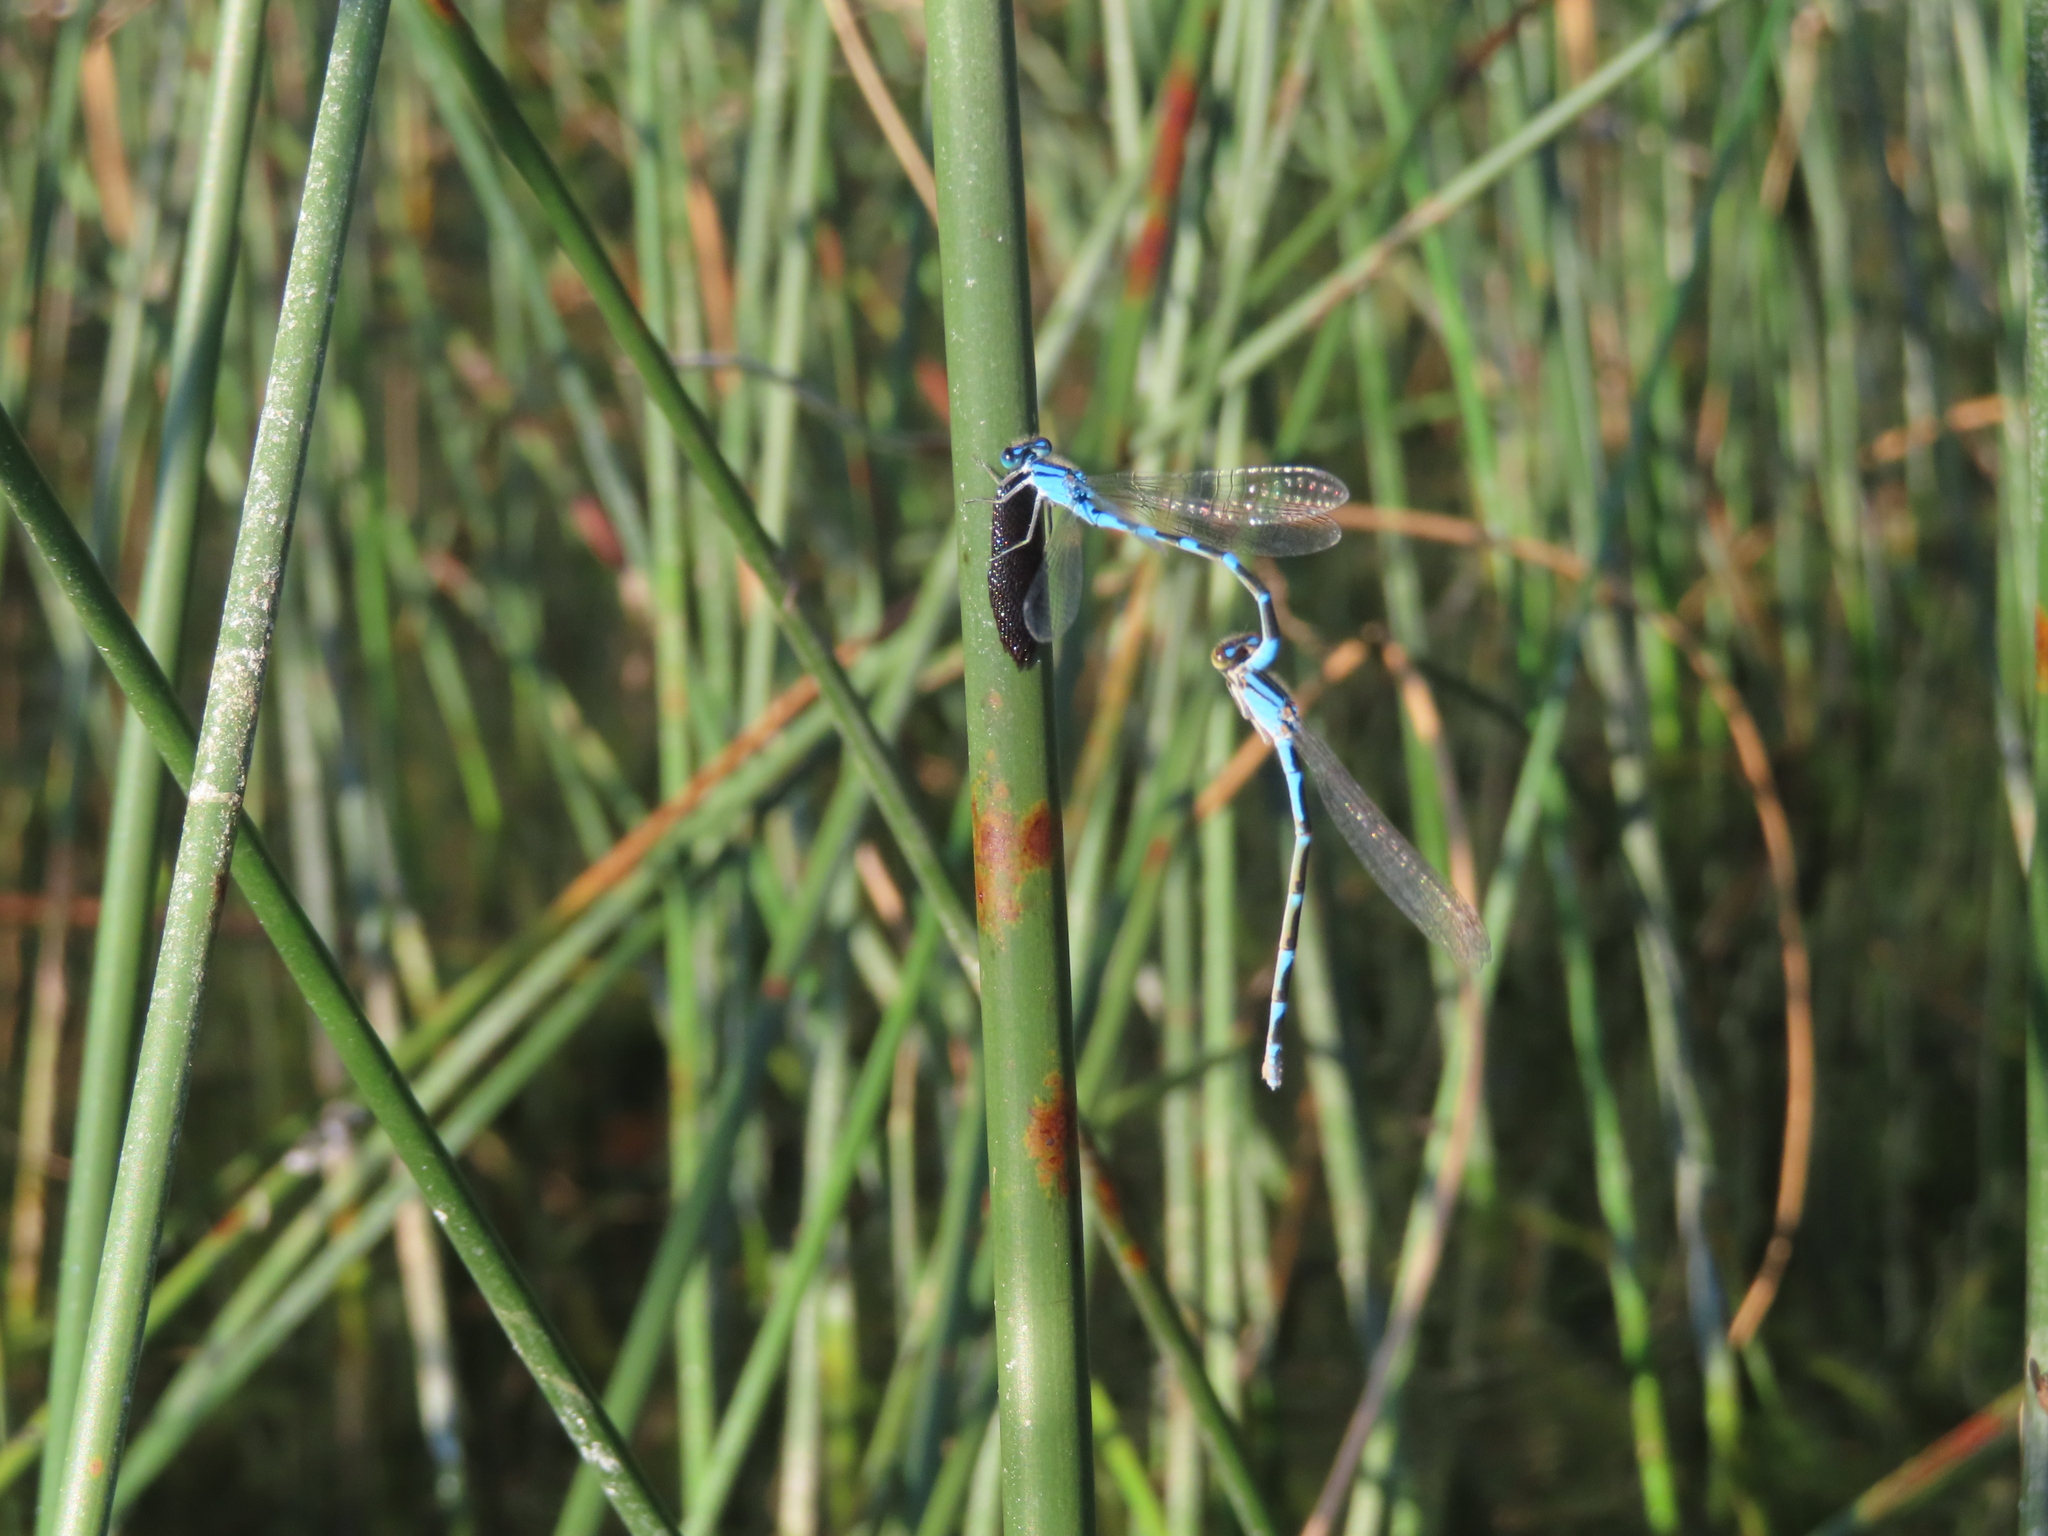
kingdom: Animalia
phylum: Arthropoda
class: Insecta
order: Odonata
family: Coenagrionidae
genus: Enallagma
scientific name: Enallagma carunculatum
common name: Tule bluet
